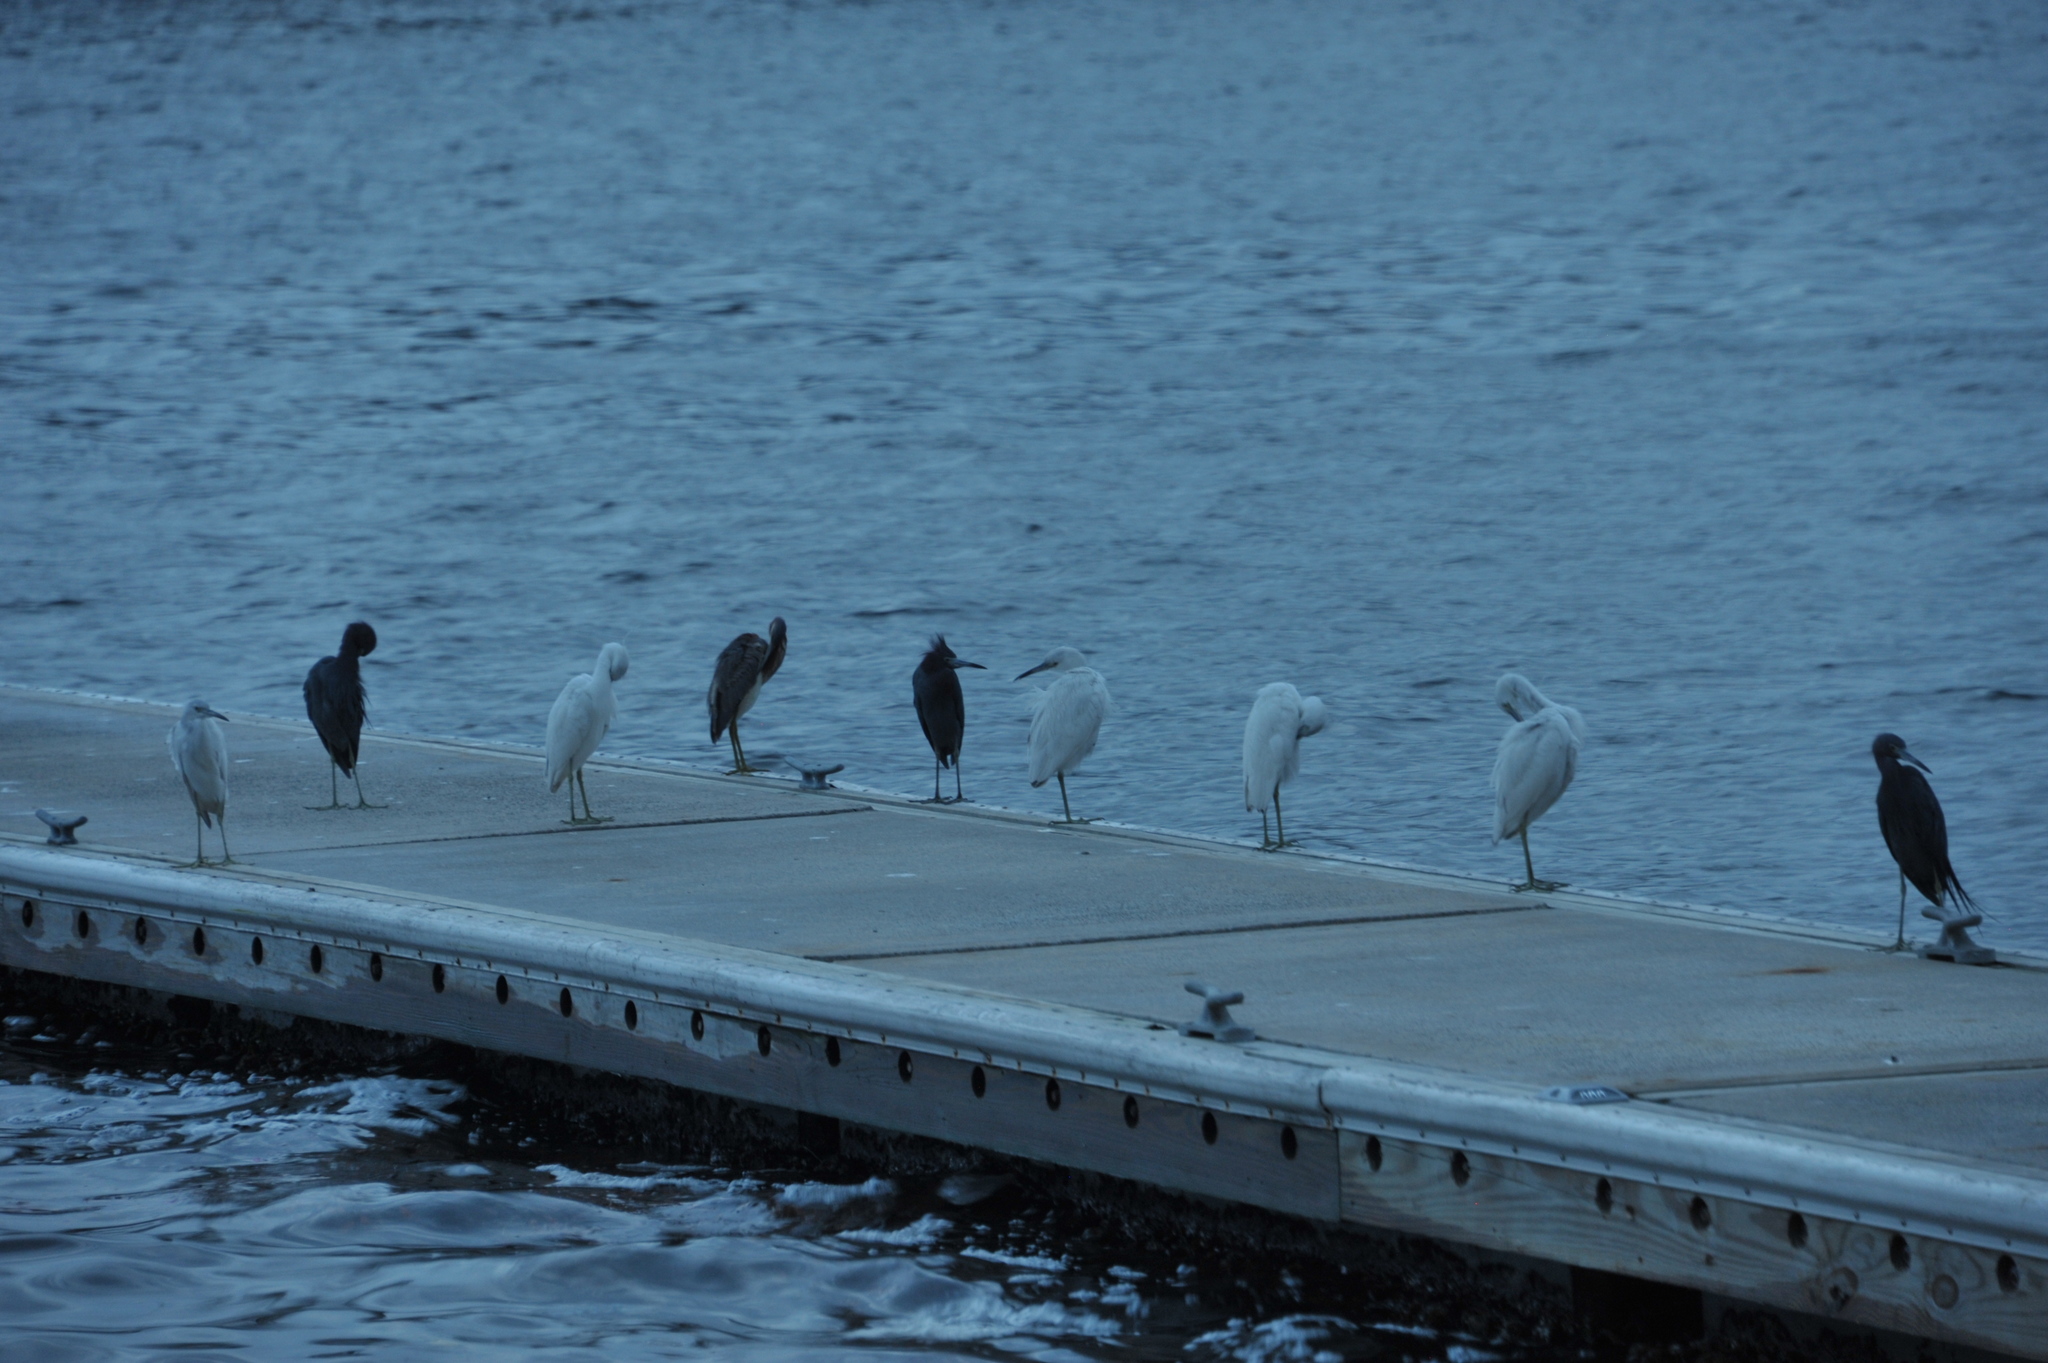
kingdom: Animalia
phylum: Chordata
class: Aves
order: Pelecaniformes
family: Ardeidae
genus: Egretta
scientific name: Egretta caerulea
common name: Little blue heron
